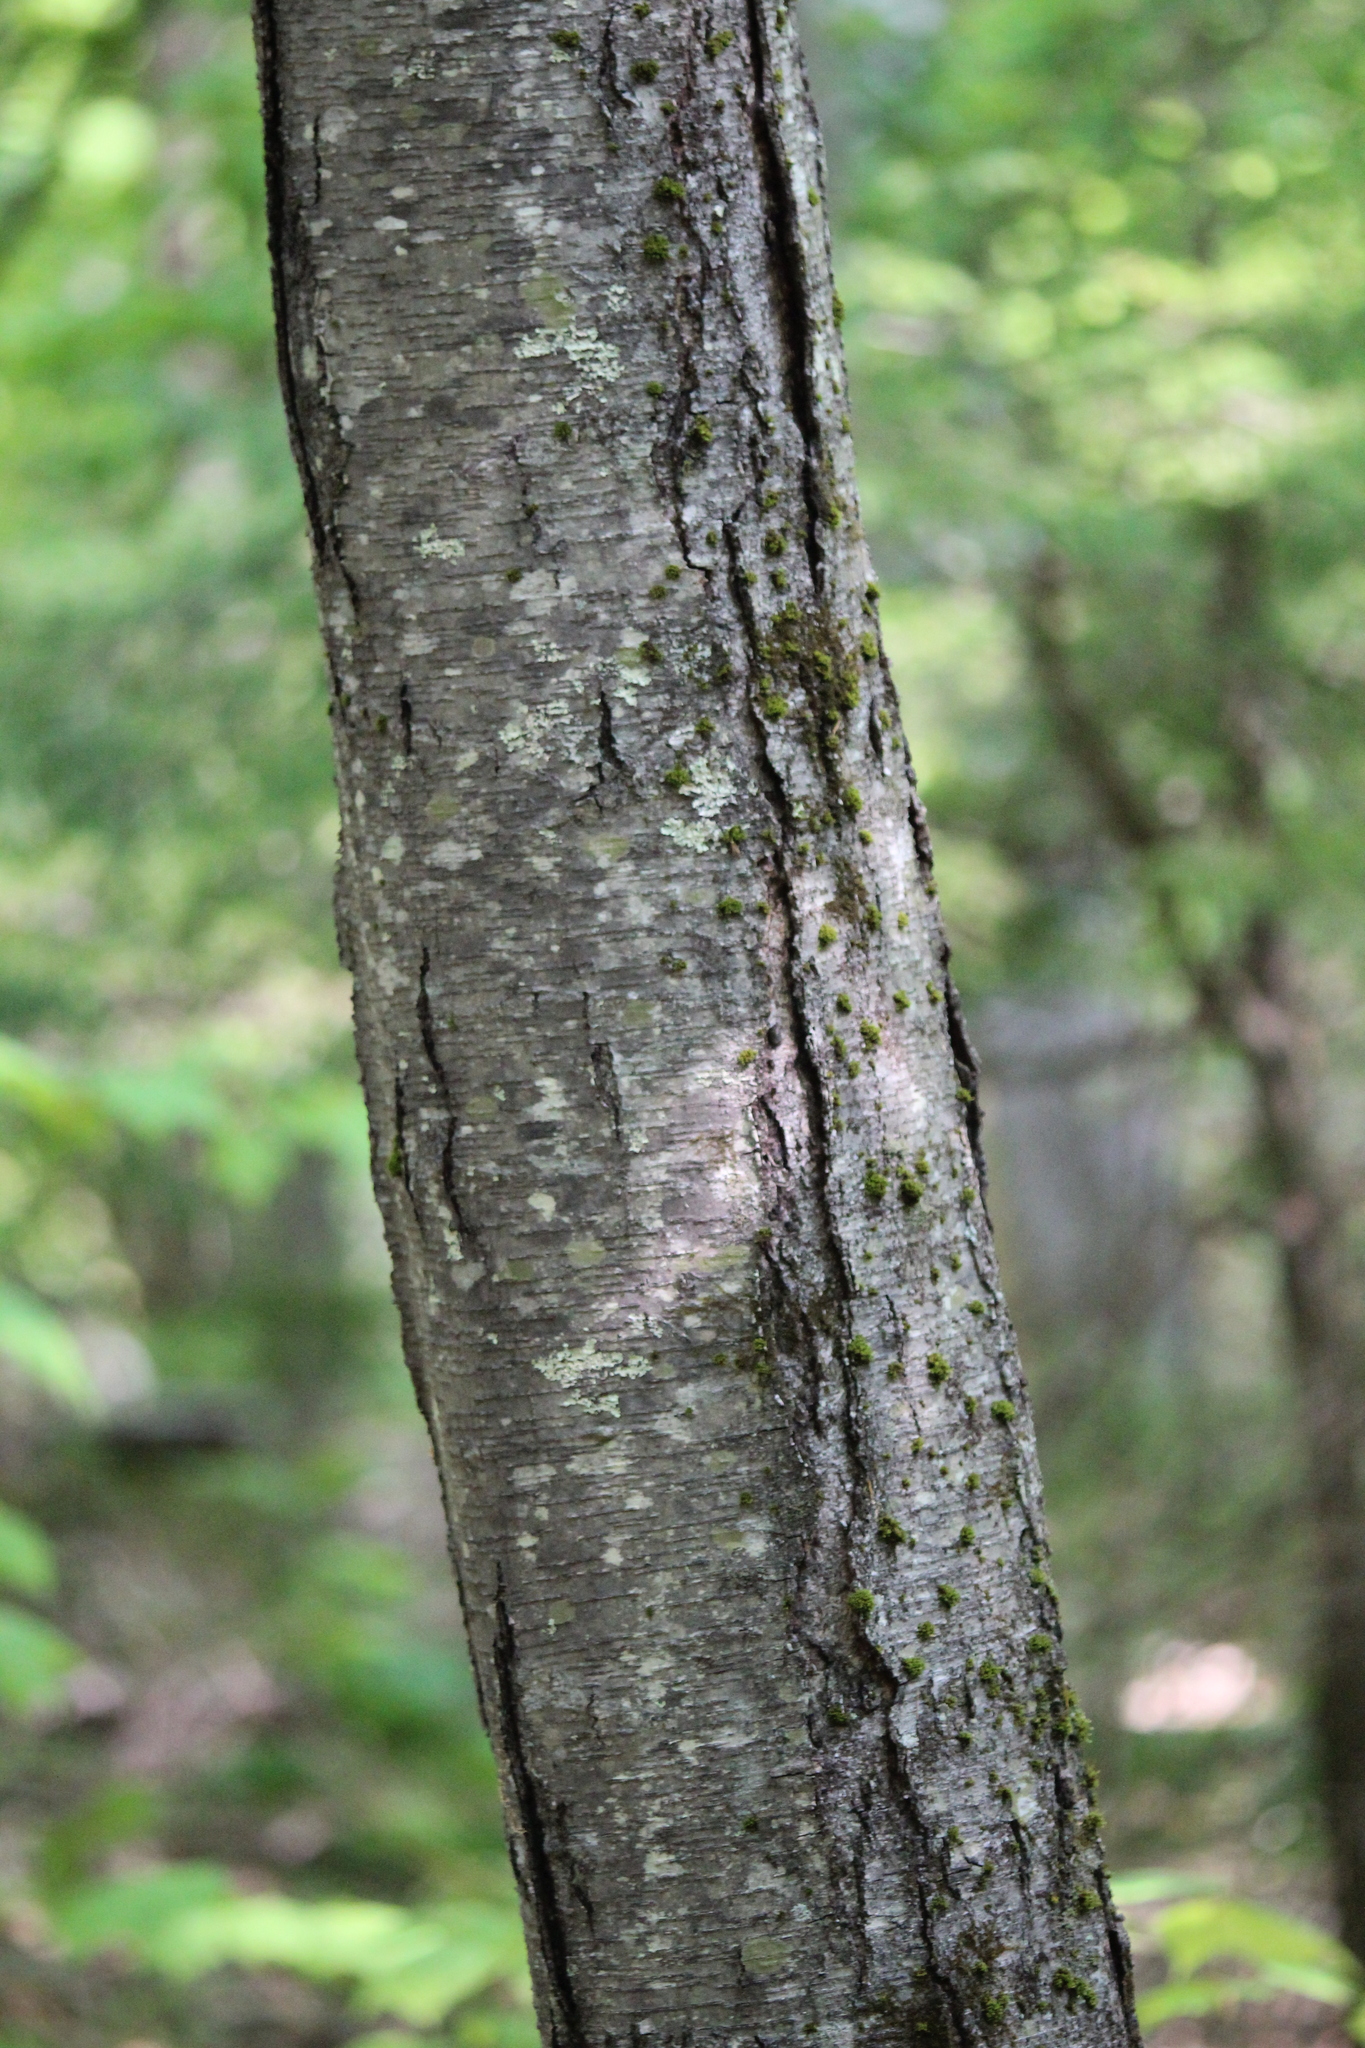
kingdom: Plantae
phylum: Tracheophyta
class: Magnoliopsida
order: Fagales
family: Betulaceae
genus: Betula
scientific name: Betula lenta
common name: Black birch
